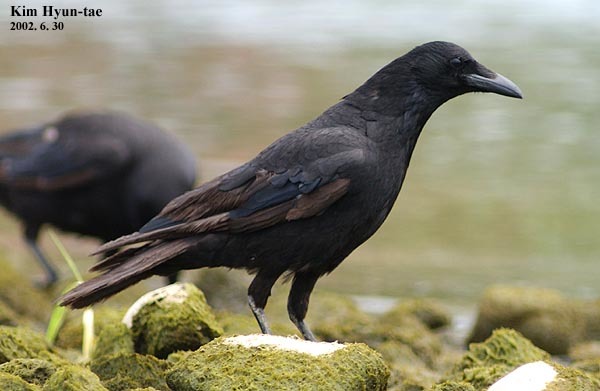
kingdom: Animalia
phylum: Chordata
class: Aves
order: Passeriformes
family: Corvidae
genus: Corvus
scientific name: Corvus corone
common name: Carrion crow
